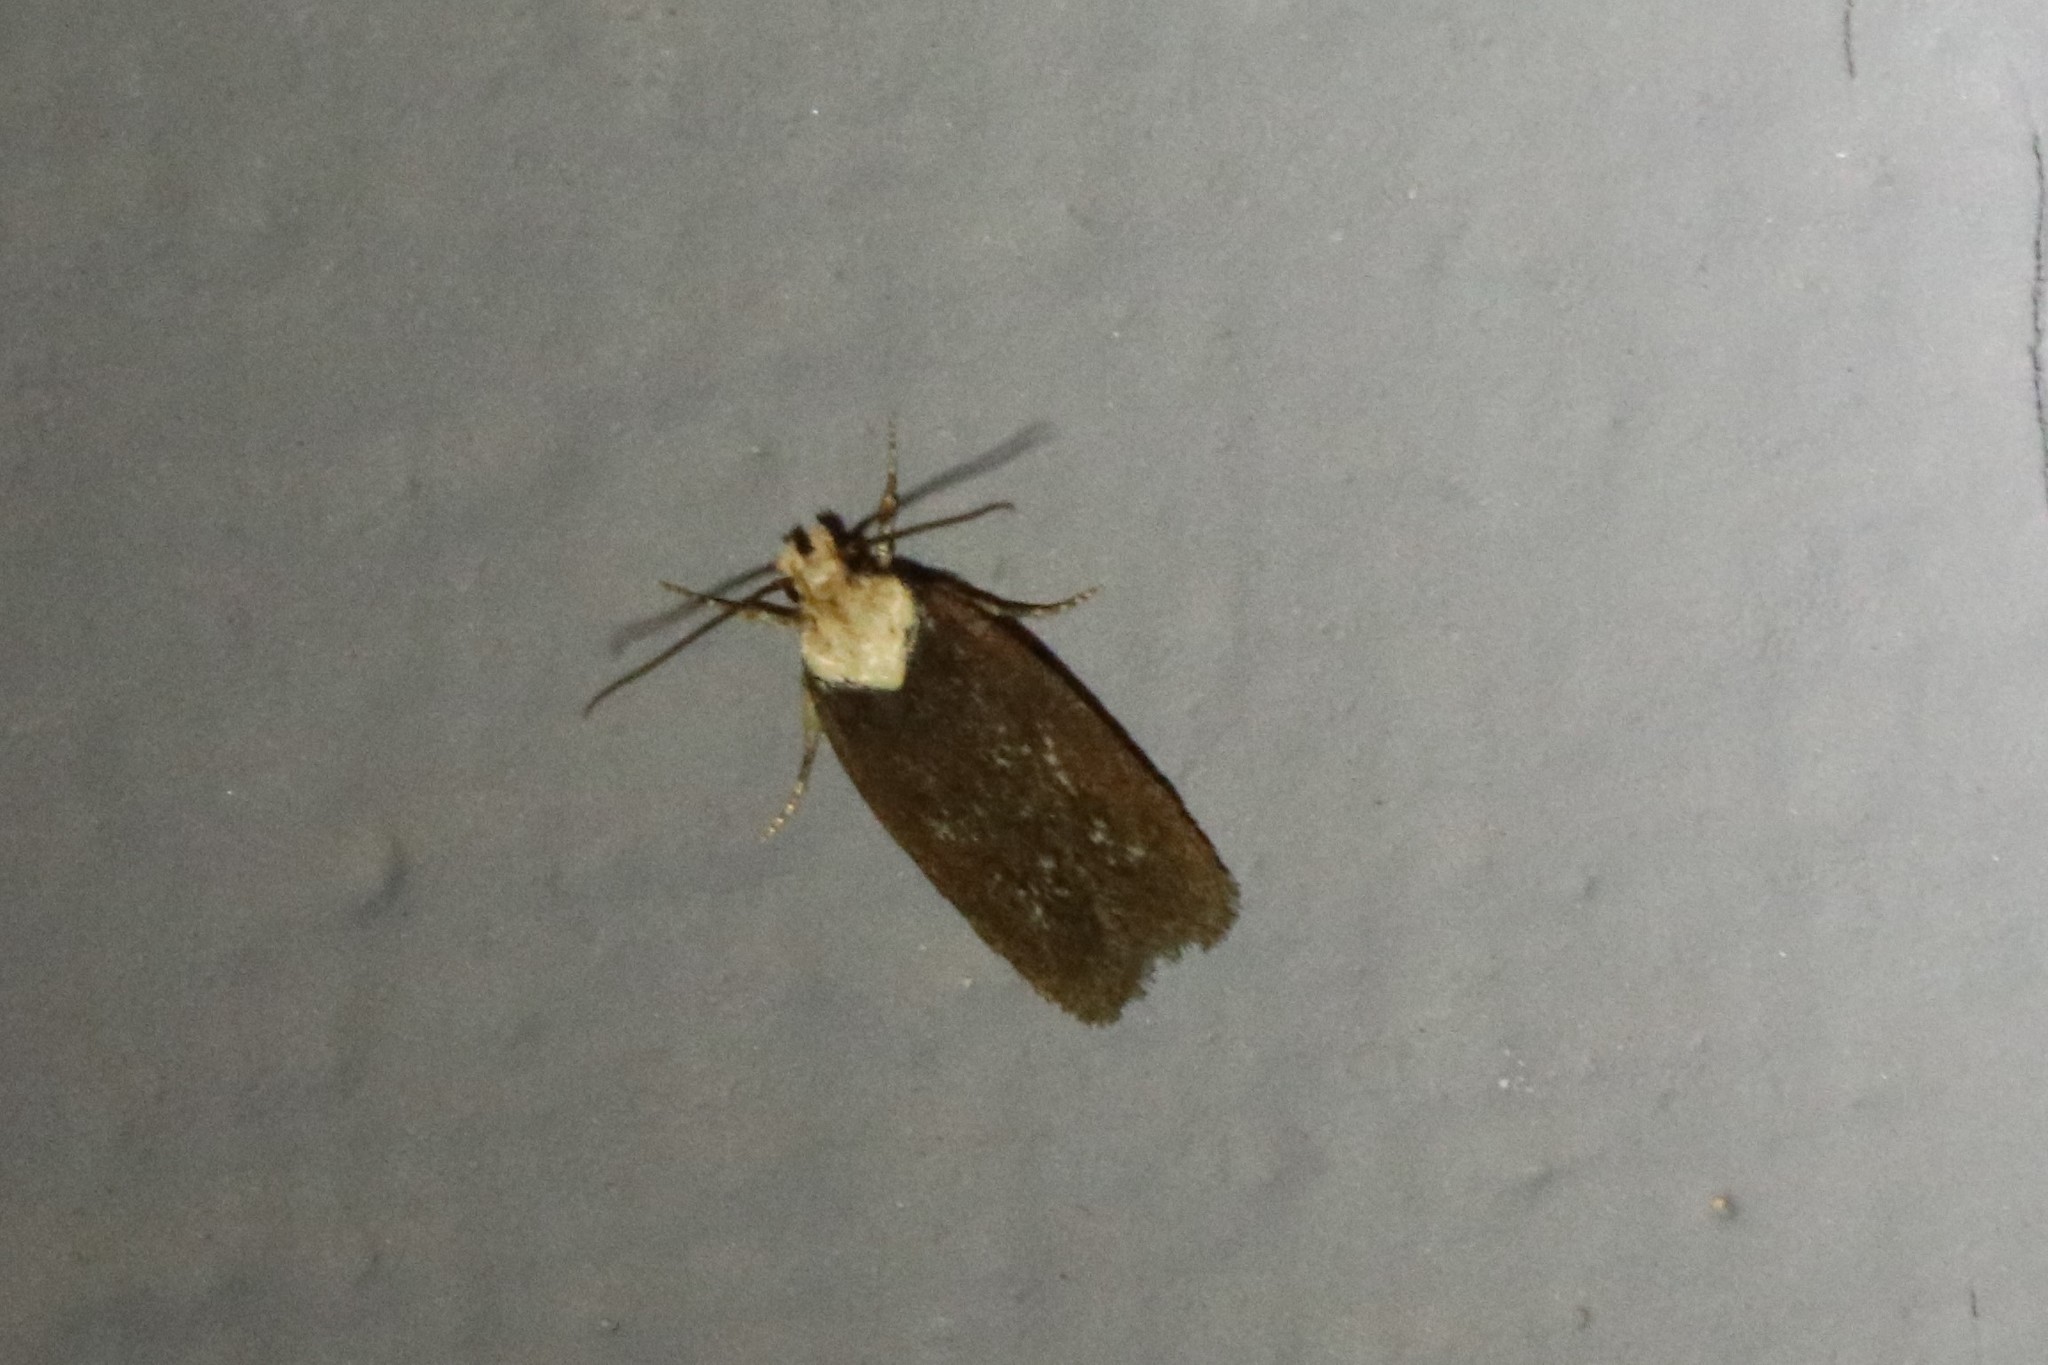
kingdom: Animalia
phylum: Arthropoda
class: Insecta
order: Lepidoptera
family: Depressariidae
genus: Depressaria
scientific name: Depressaria depressana
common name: Lost flat-body
